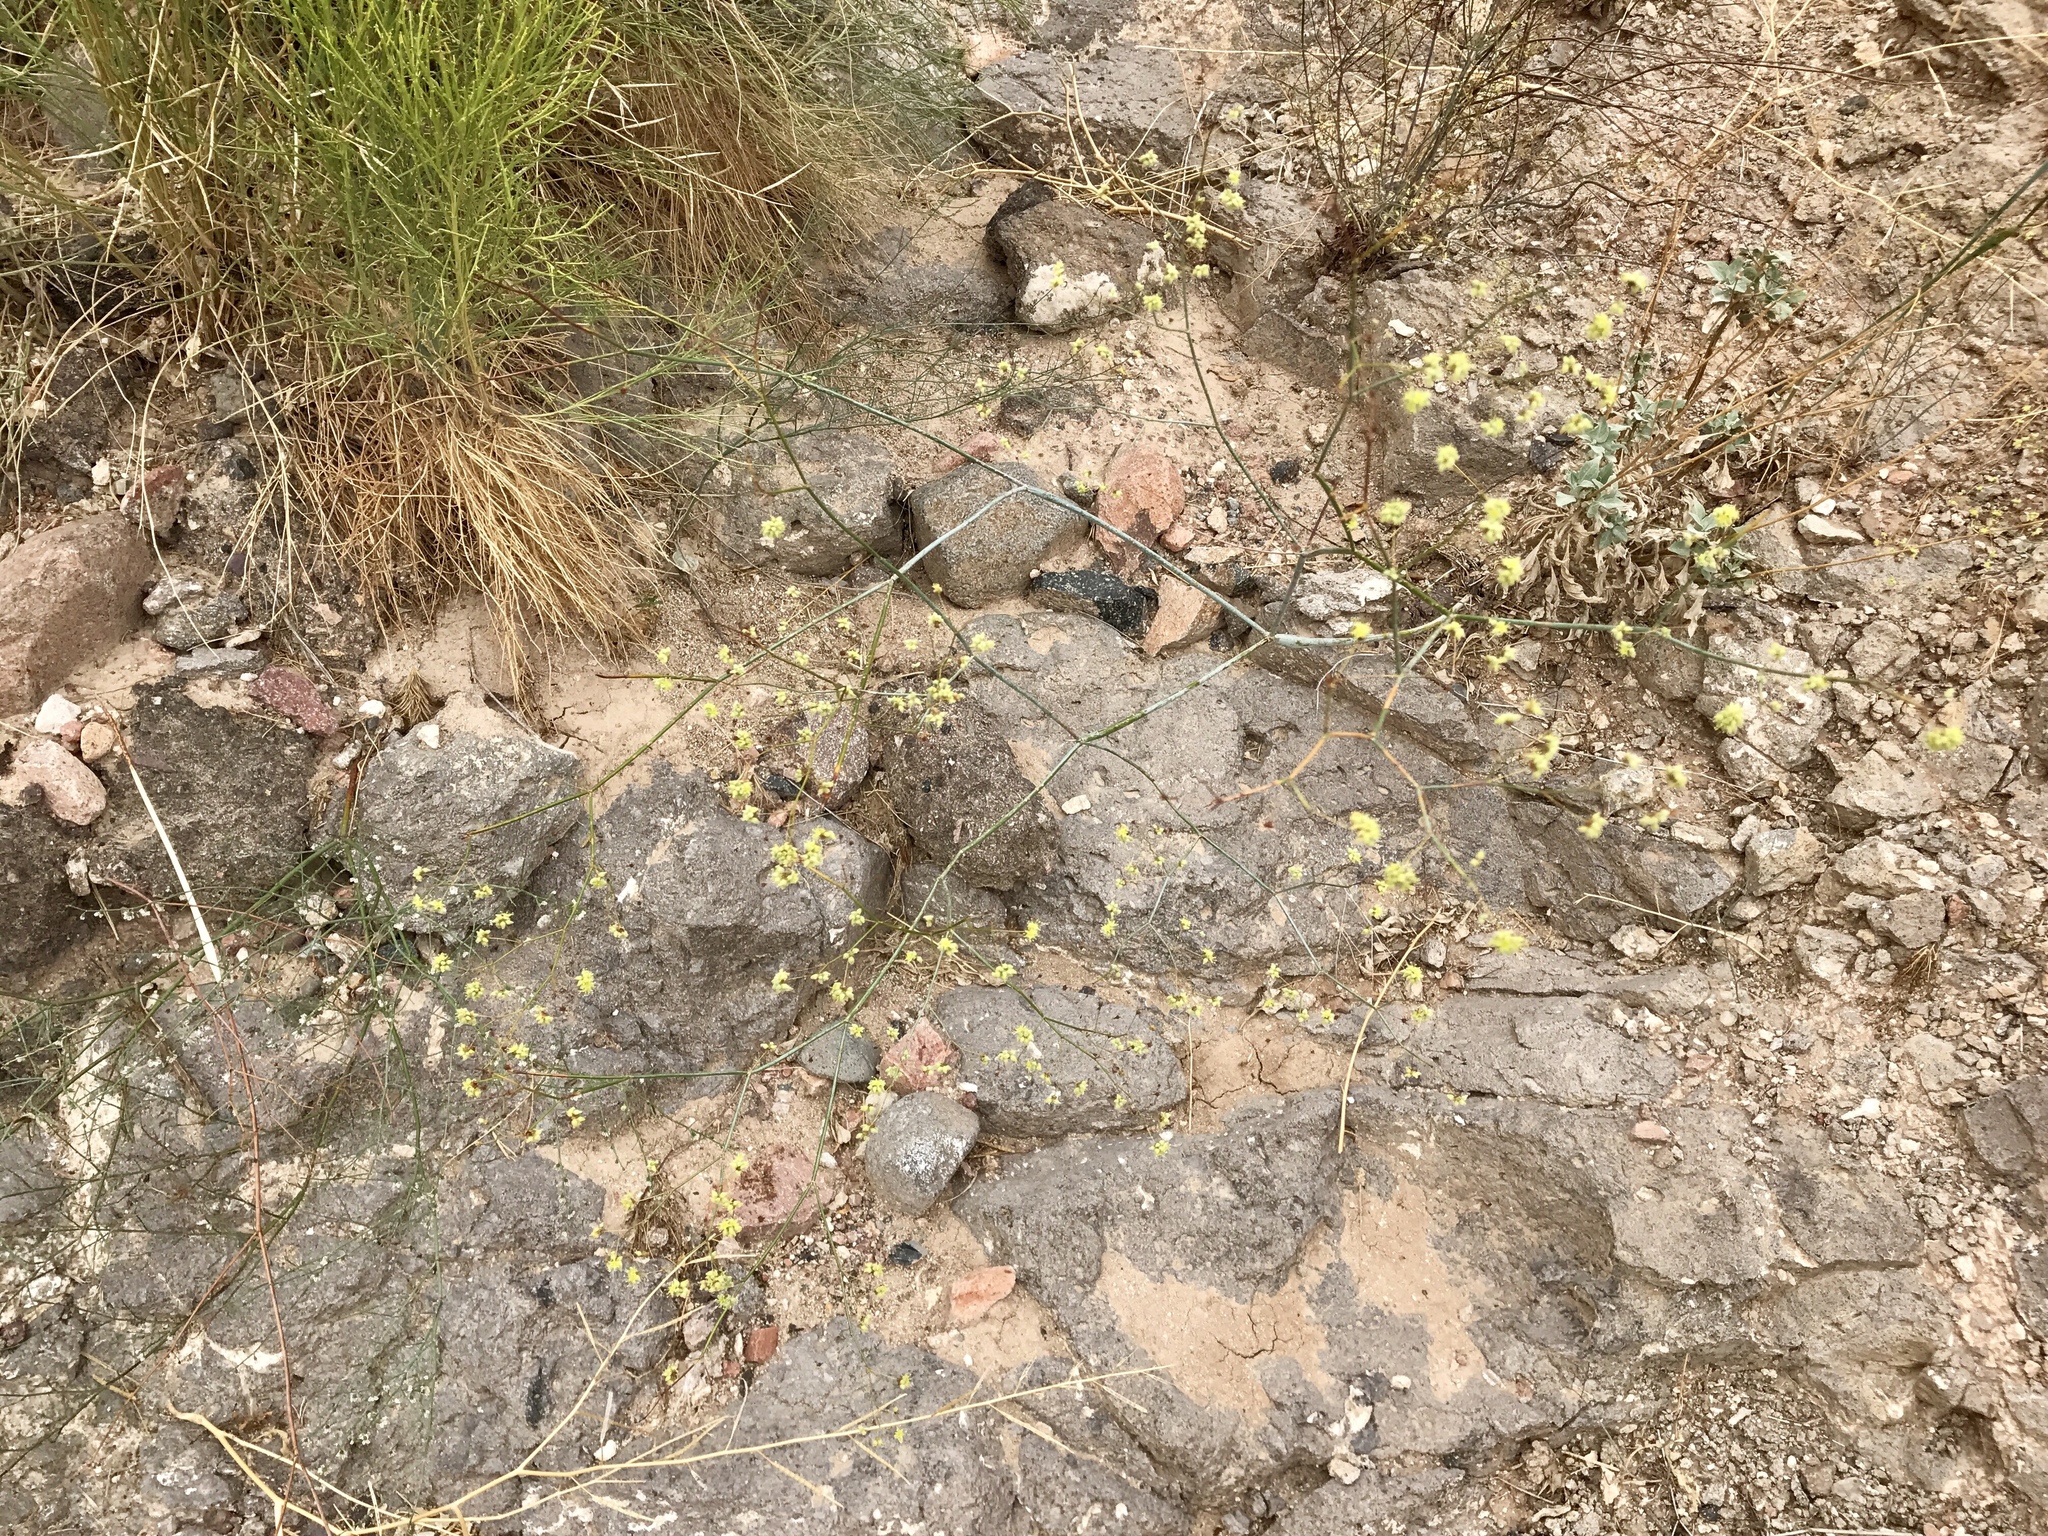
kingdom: Plantae
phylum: Tracheophyta
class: Magnoliopsida
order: Caryophyllales
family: Polygonaceae
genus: Eriogonum
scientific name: Eriogonum inflatum
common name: Desert trumpet
